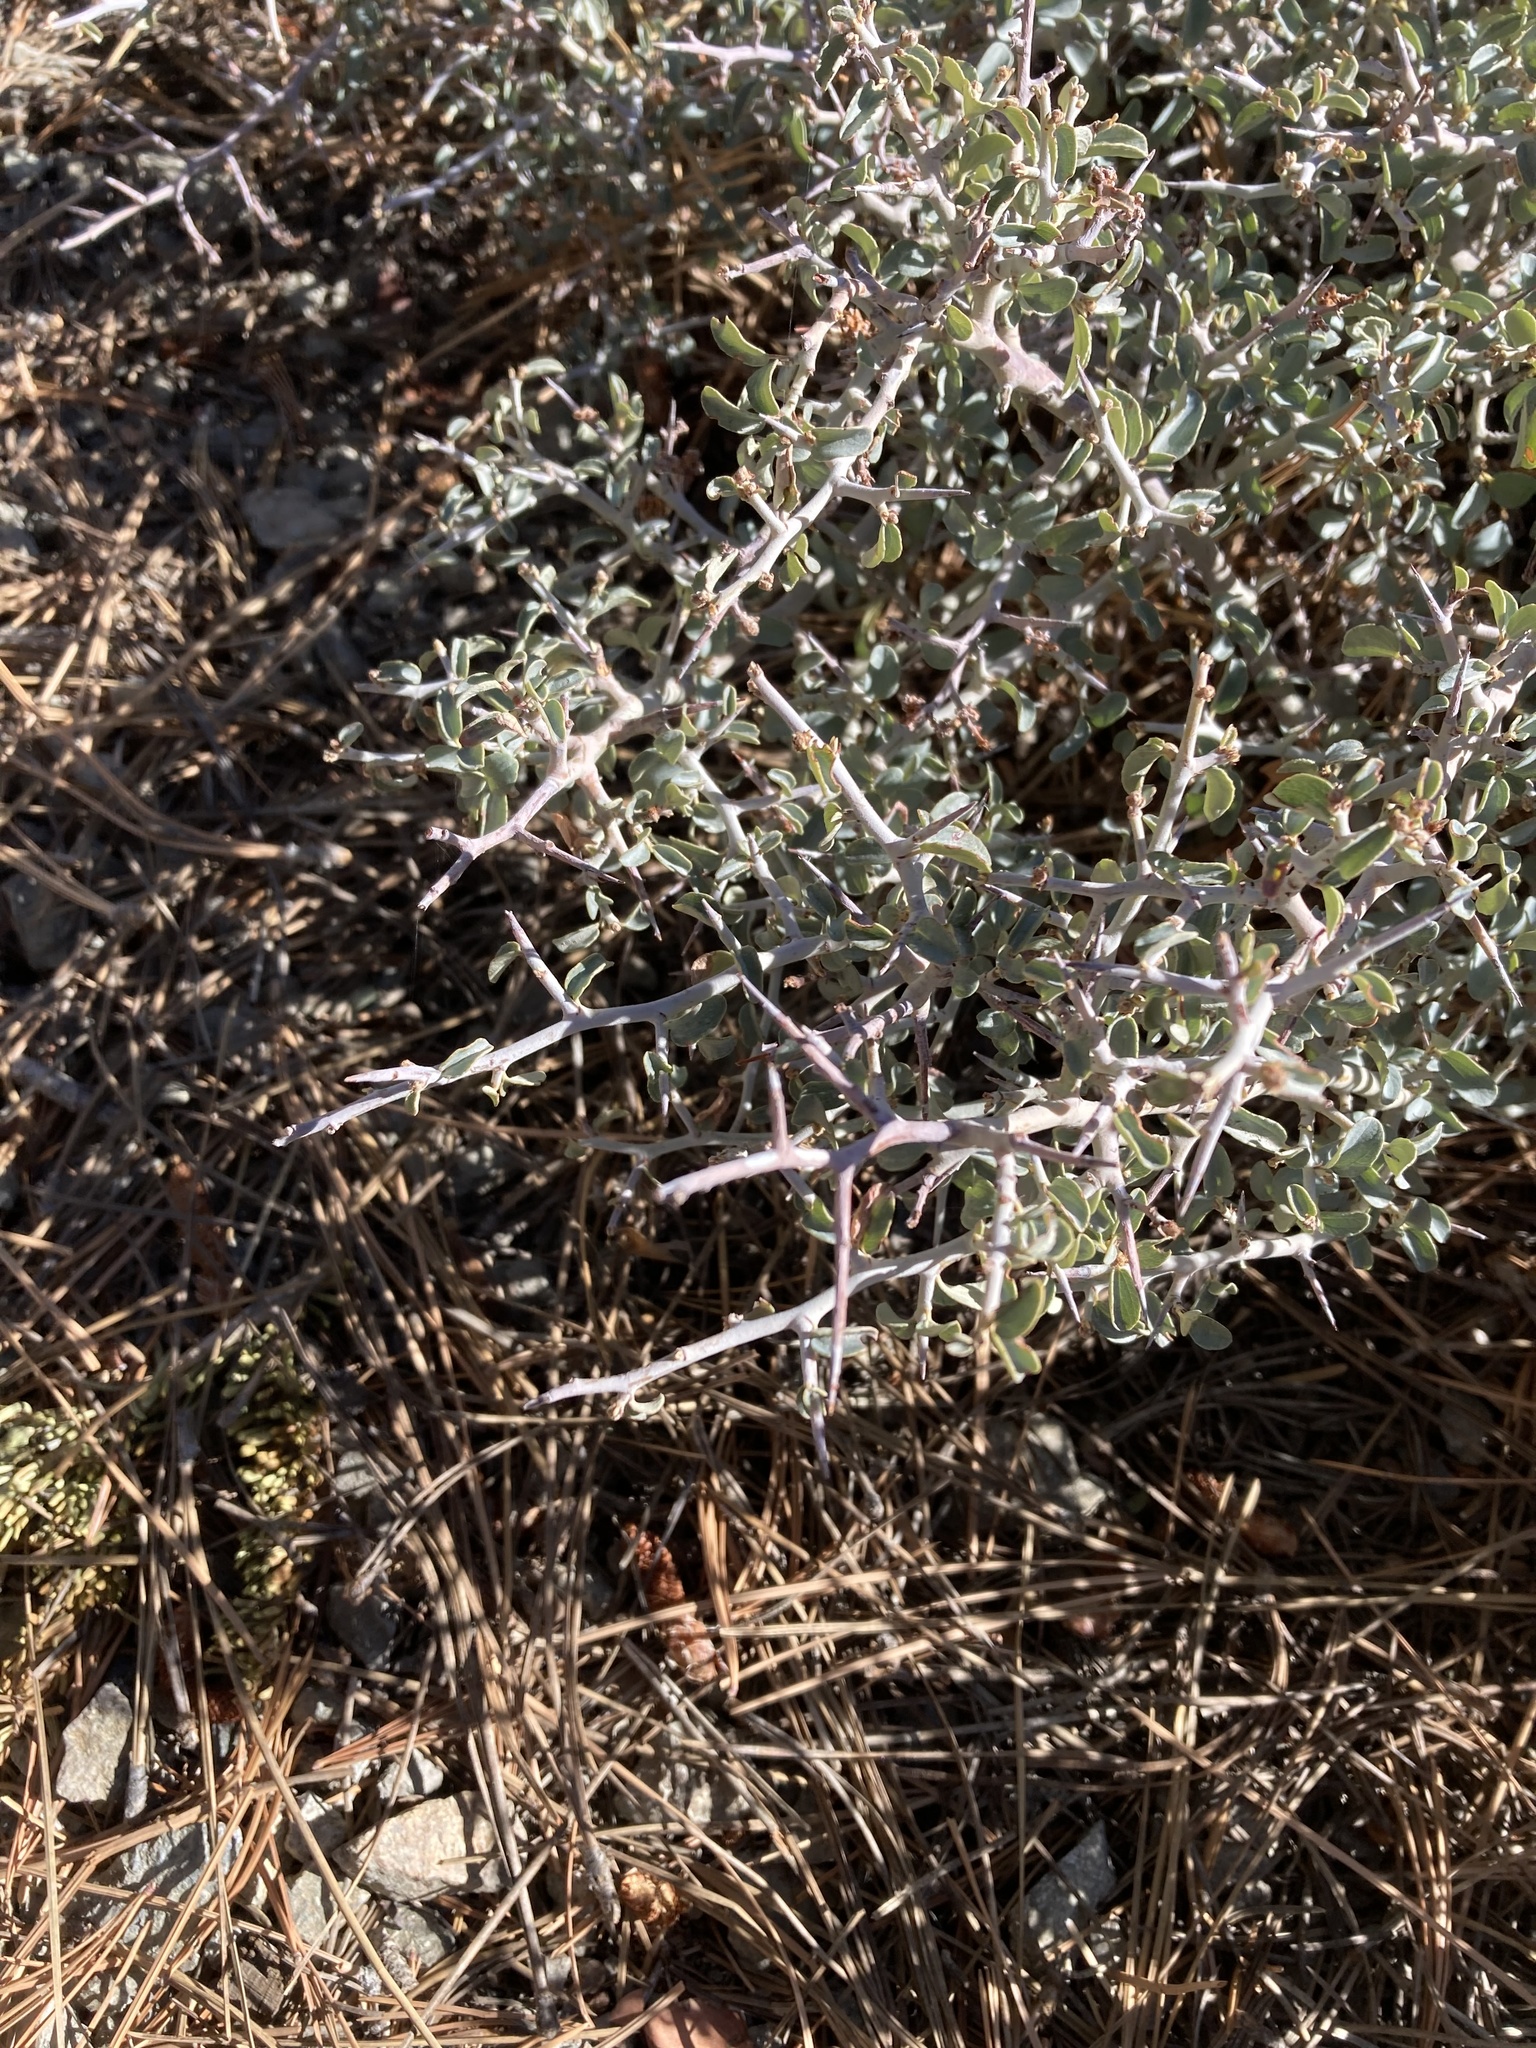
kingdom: Plantae
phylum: Tracheophyta
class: Magnoliopsida
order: Rosales
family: Rhamnaceae
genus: Ceanothus
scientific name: Ceanothus cordulatus
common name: Mountain whitethorn
